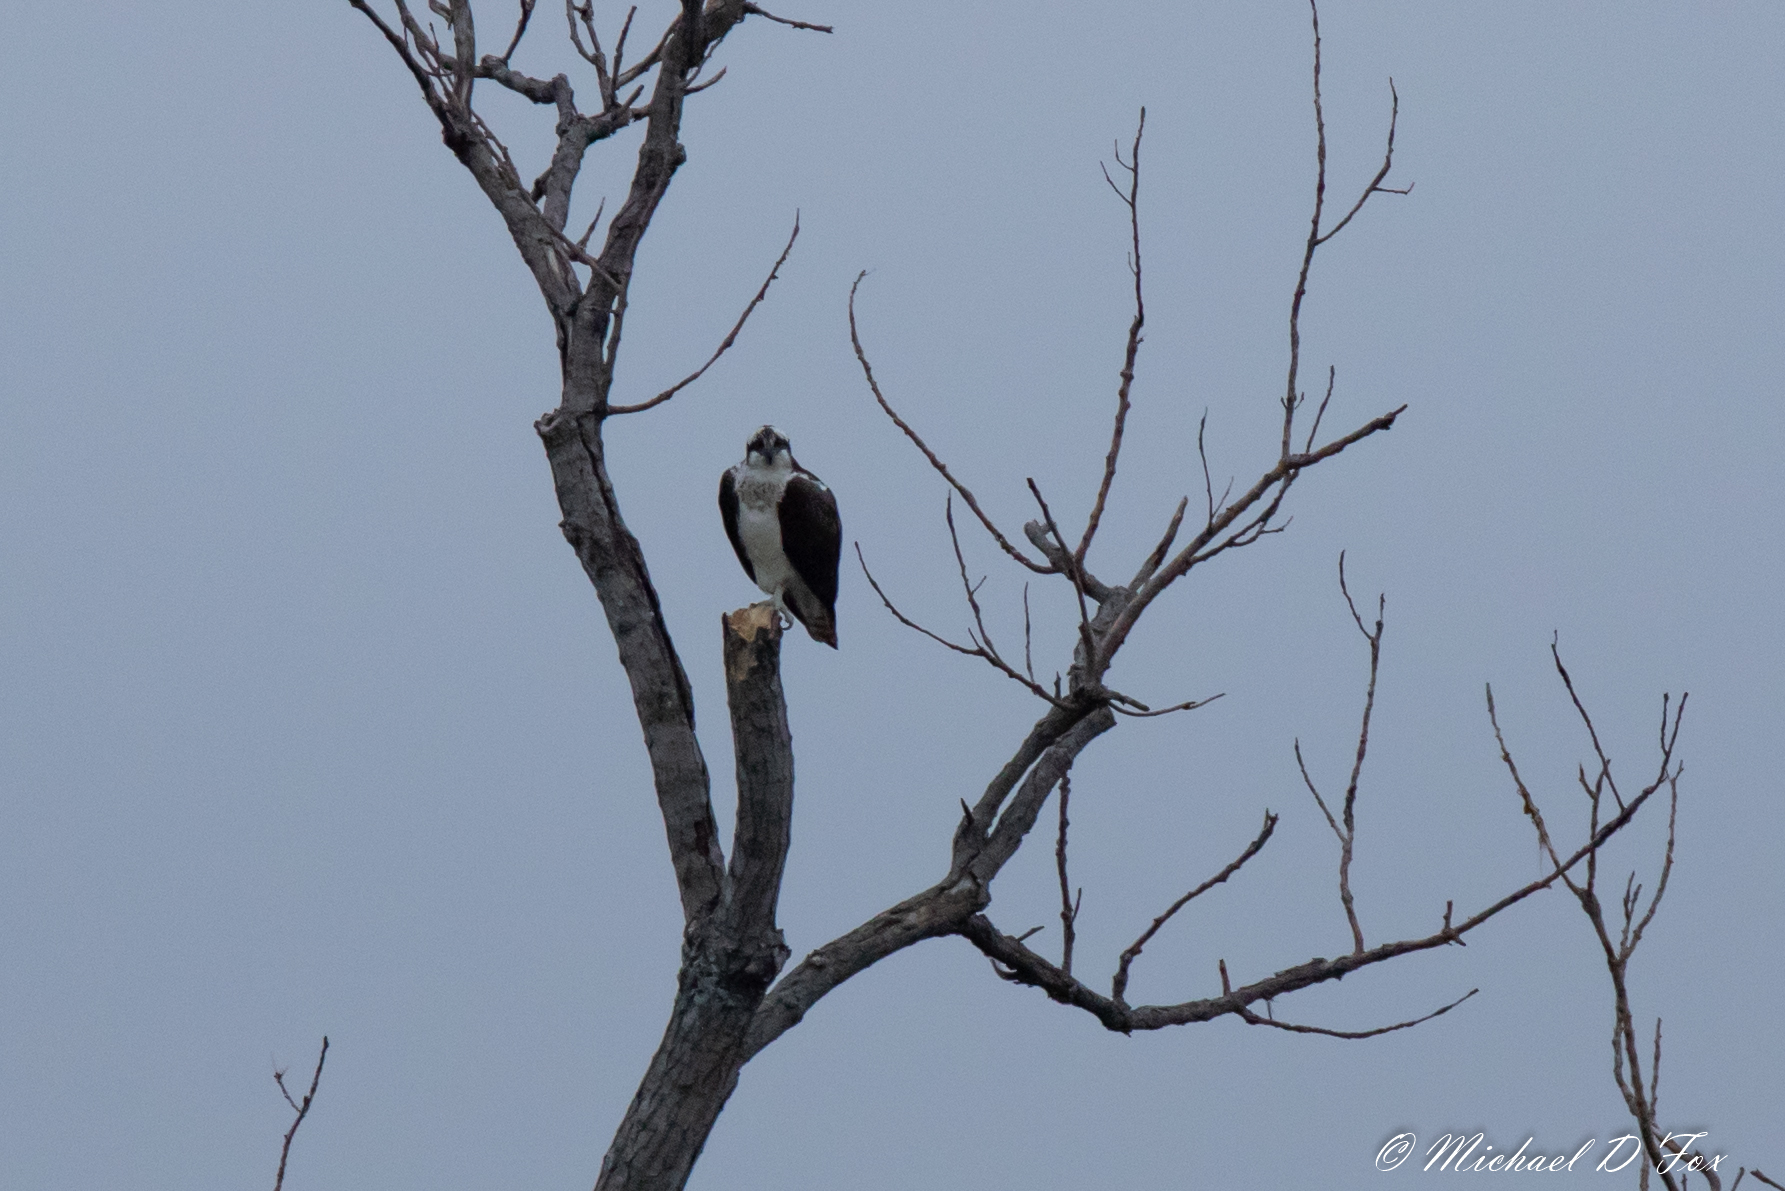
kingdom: Animalia
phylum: Chordata
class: Aves
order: Accipitriformes
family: Pandionidae
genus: Pandion
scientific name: Pandion haliaetus
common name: Osprey
